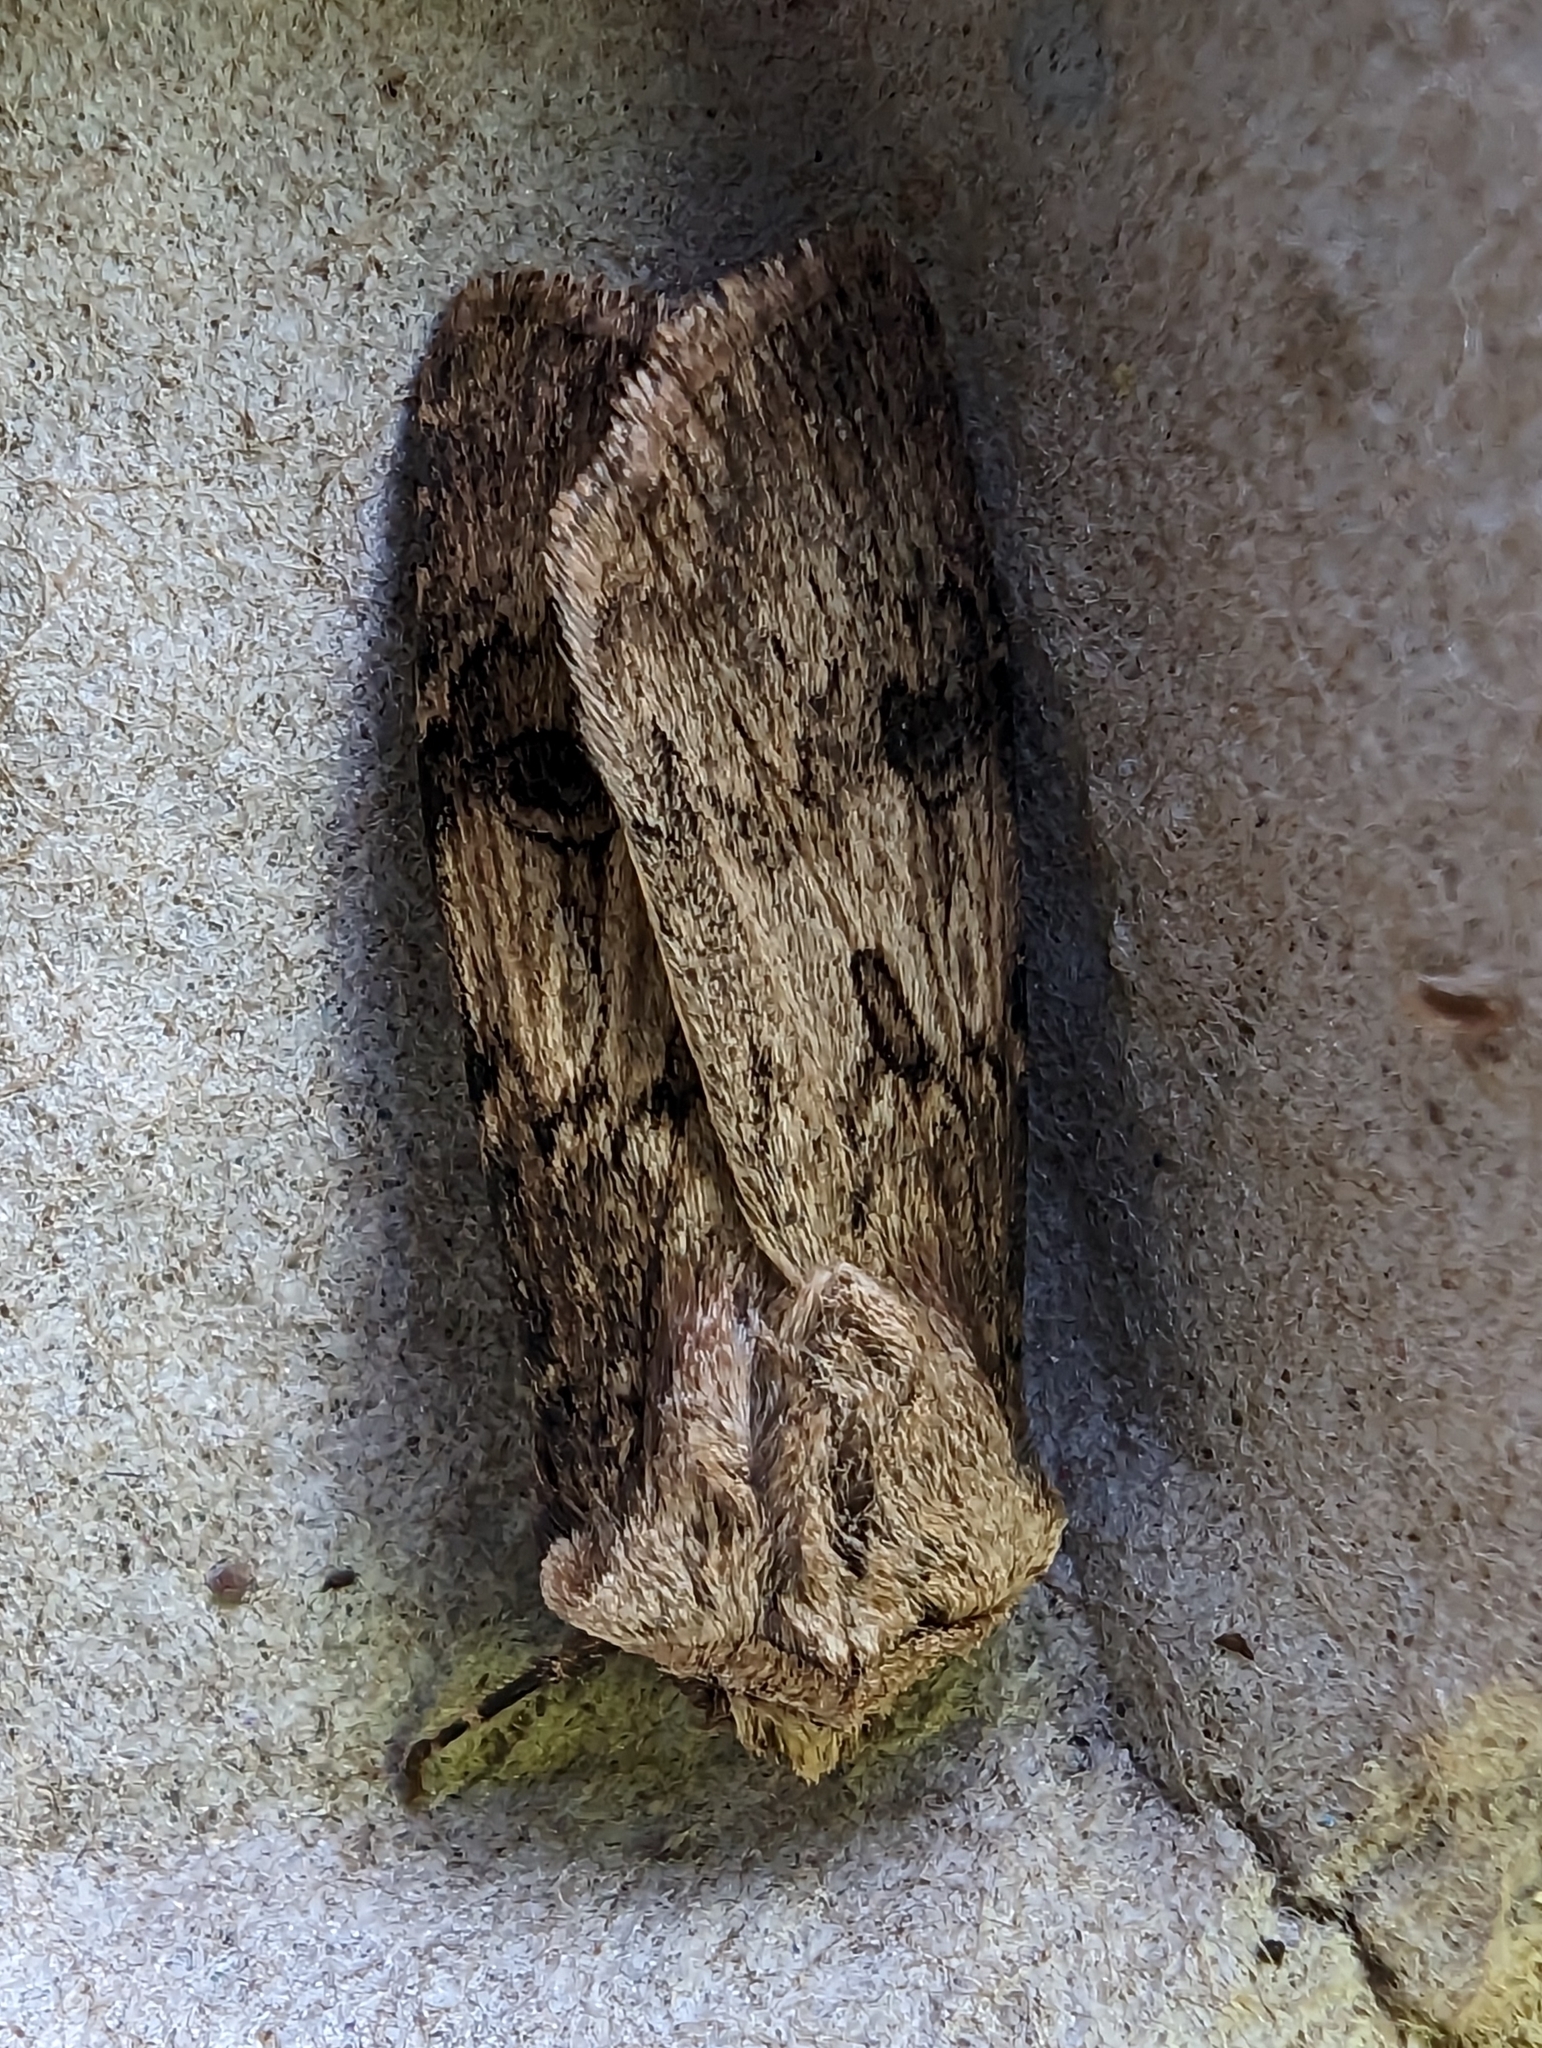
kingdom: Animalia
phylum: Arthropoda
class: Insecta
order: Lepidoptera
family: Noctuidae
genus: Agrotis
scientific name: Agrotis puta
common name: Shuttle-shaped dart
